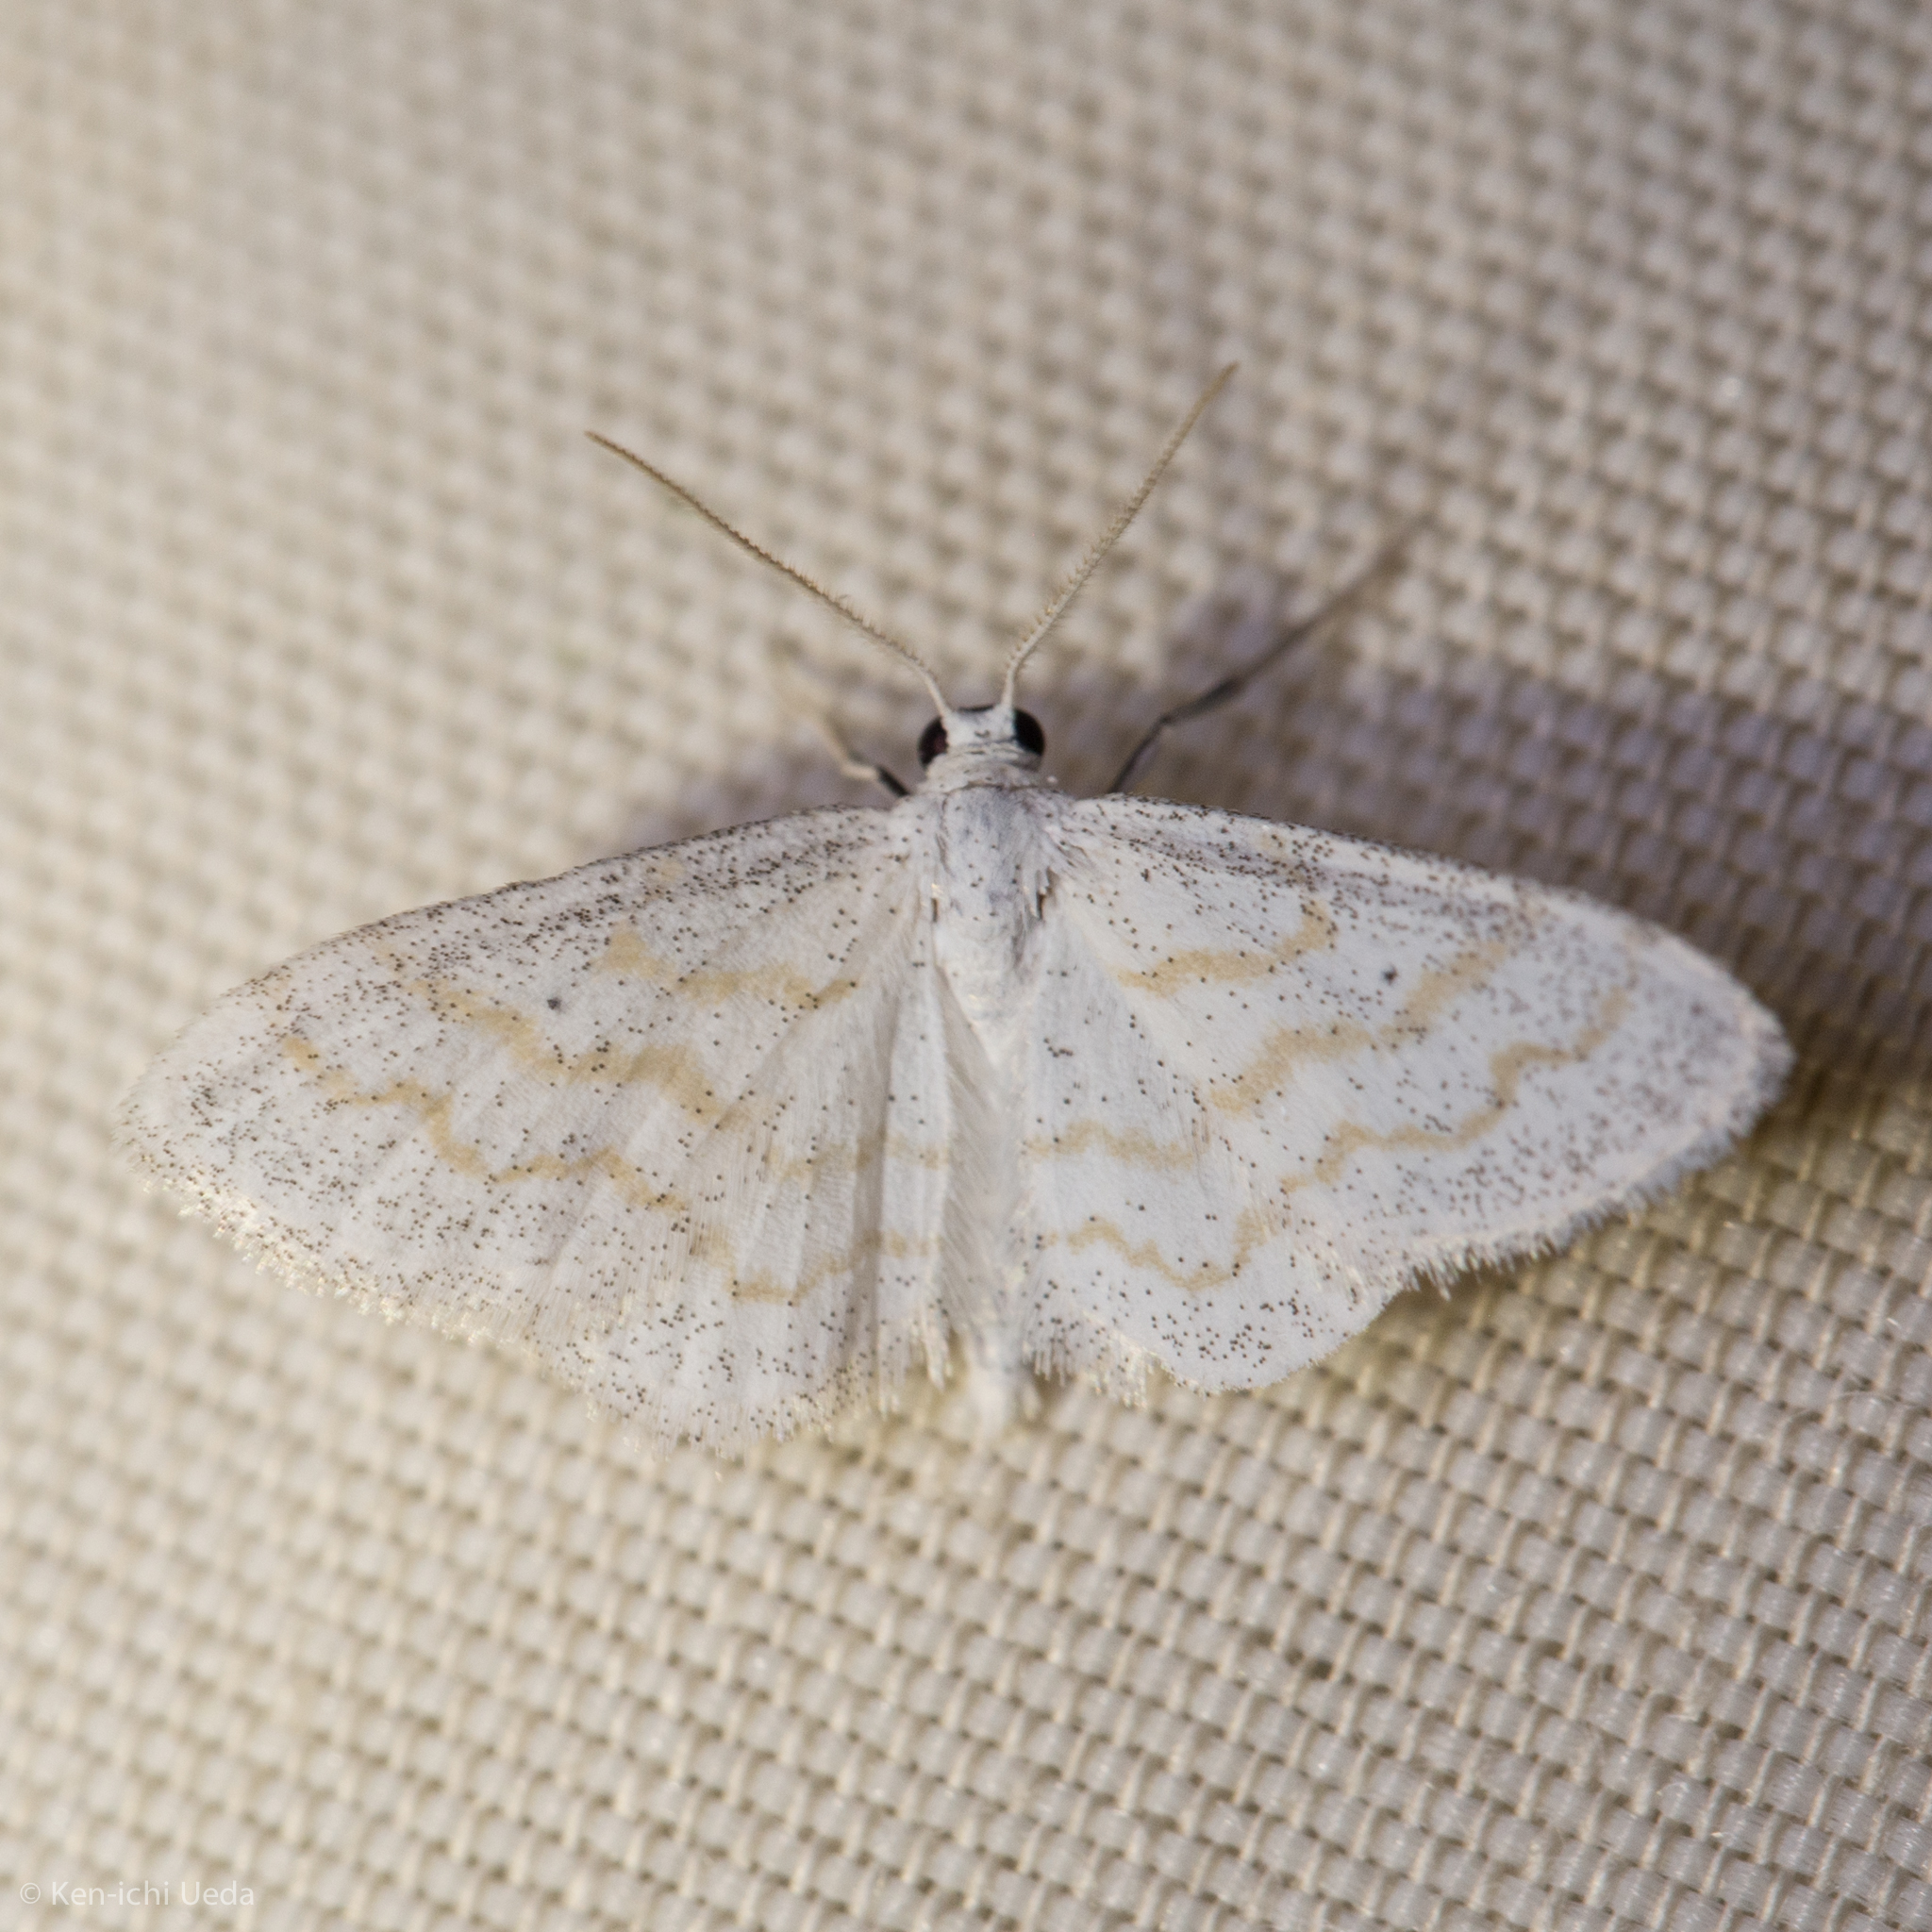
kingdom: Animalia
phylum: Arthropoda
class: Insecta
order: Lepidoptera
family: Geometridae
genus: Lobocleta
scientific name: Lobocleta peralbata
